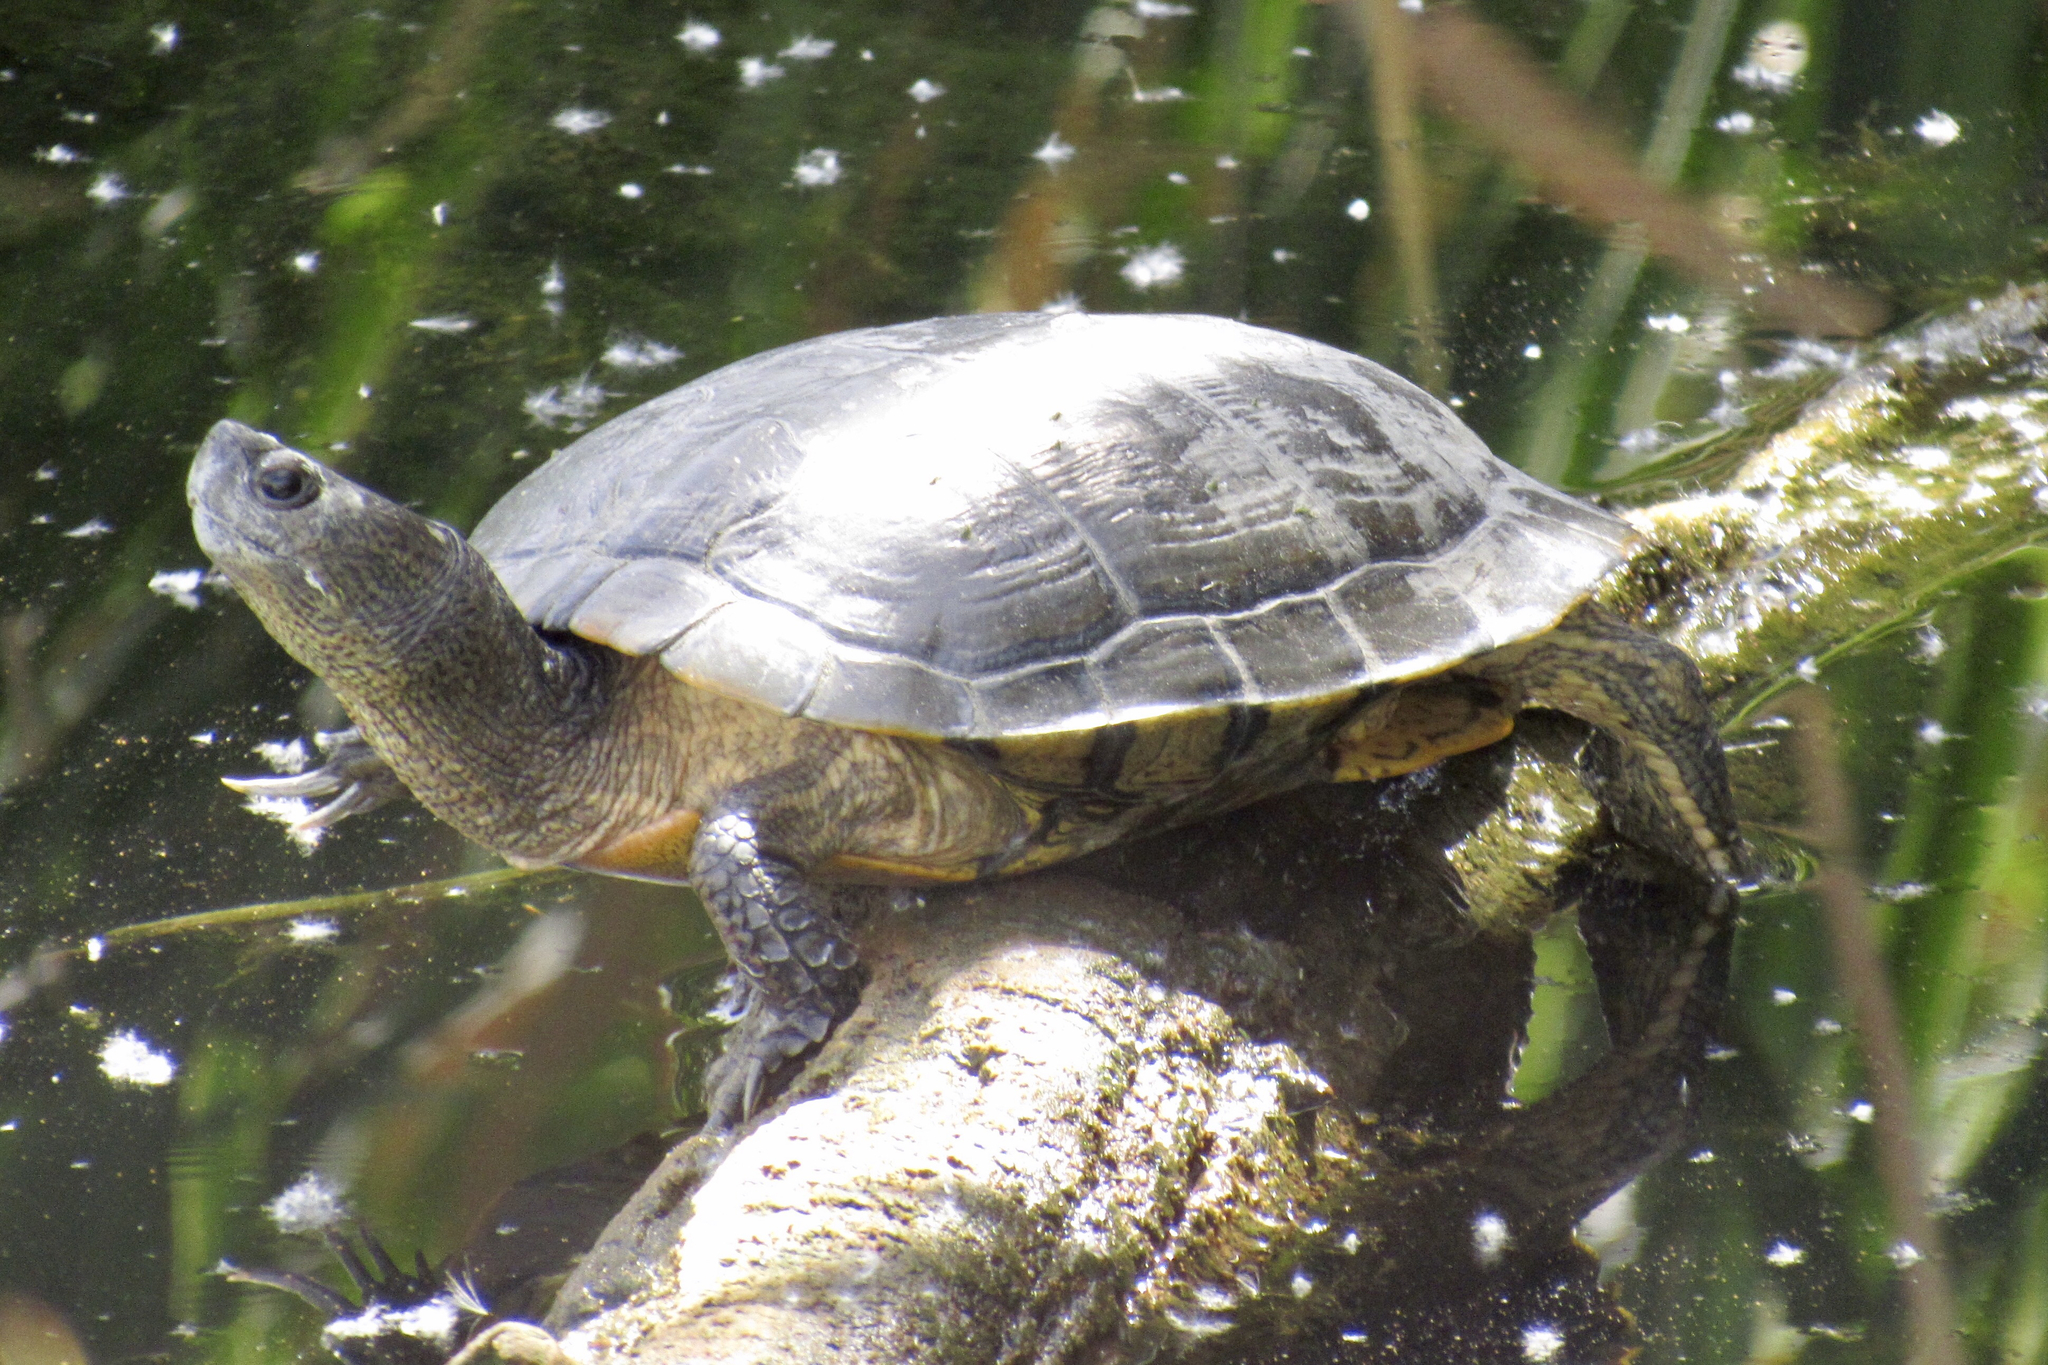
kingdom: Animalia
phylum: Chordata
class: Testudines
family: Emydidae
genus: Trachemys
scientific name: Trachemys scripta
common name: Slider
